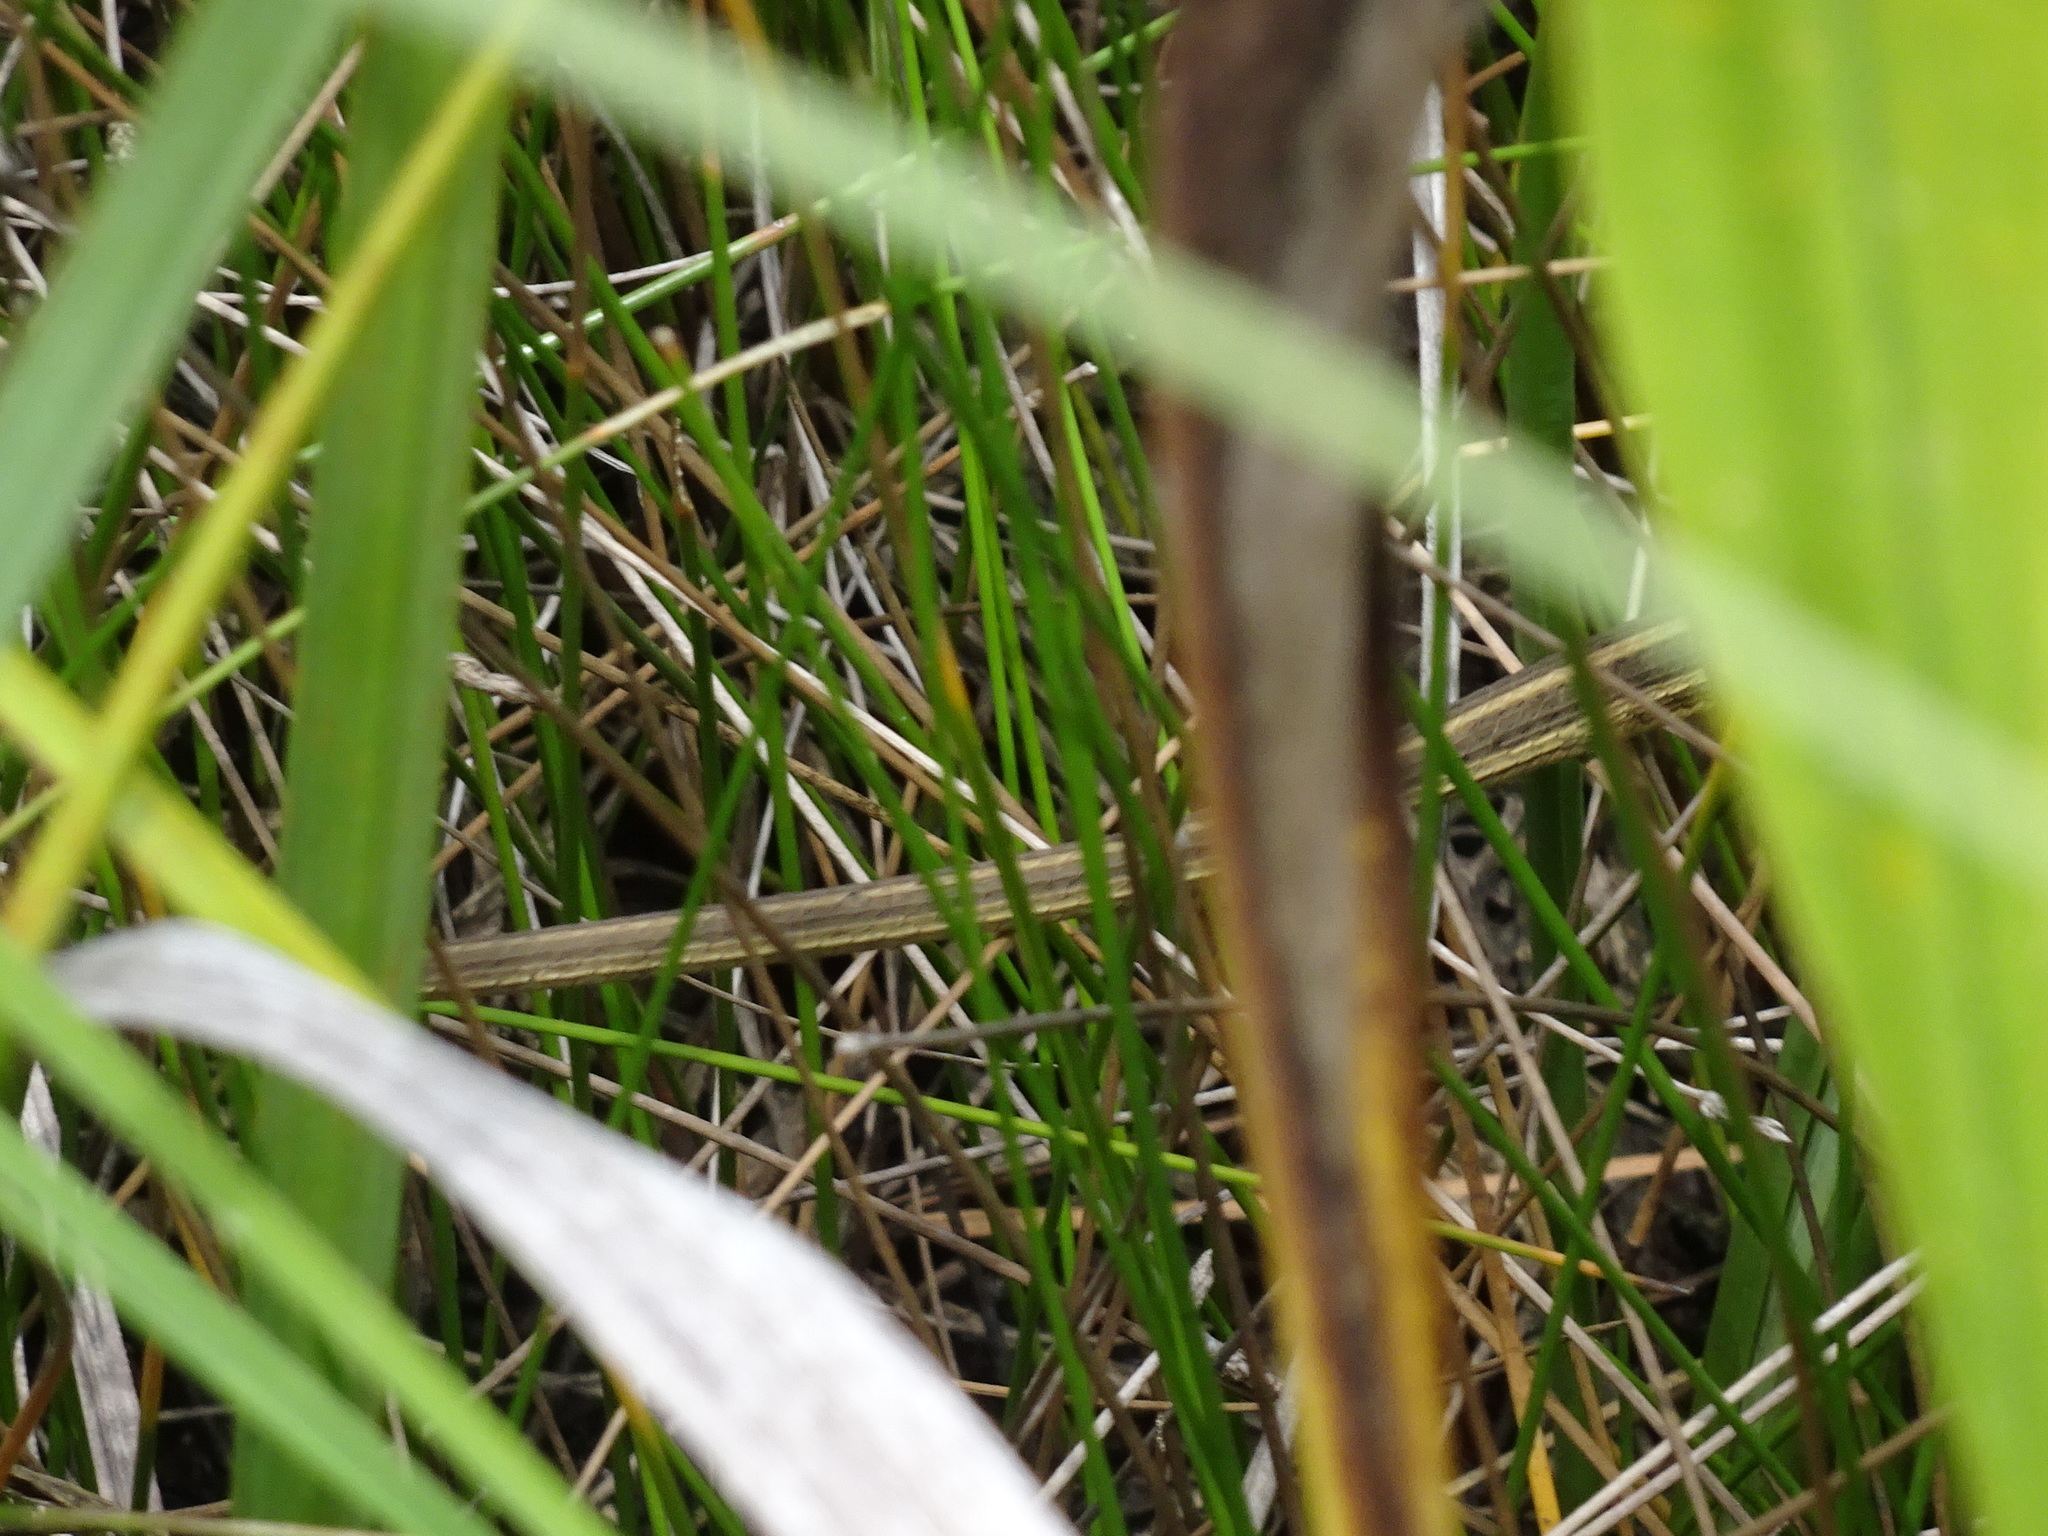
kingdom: Animalia
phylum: Chordata
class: Squamata
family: Colubridae
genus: Thamnophis
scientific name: Thamnophis proximus
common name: Western ribbon snake
